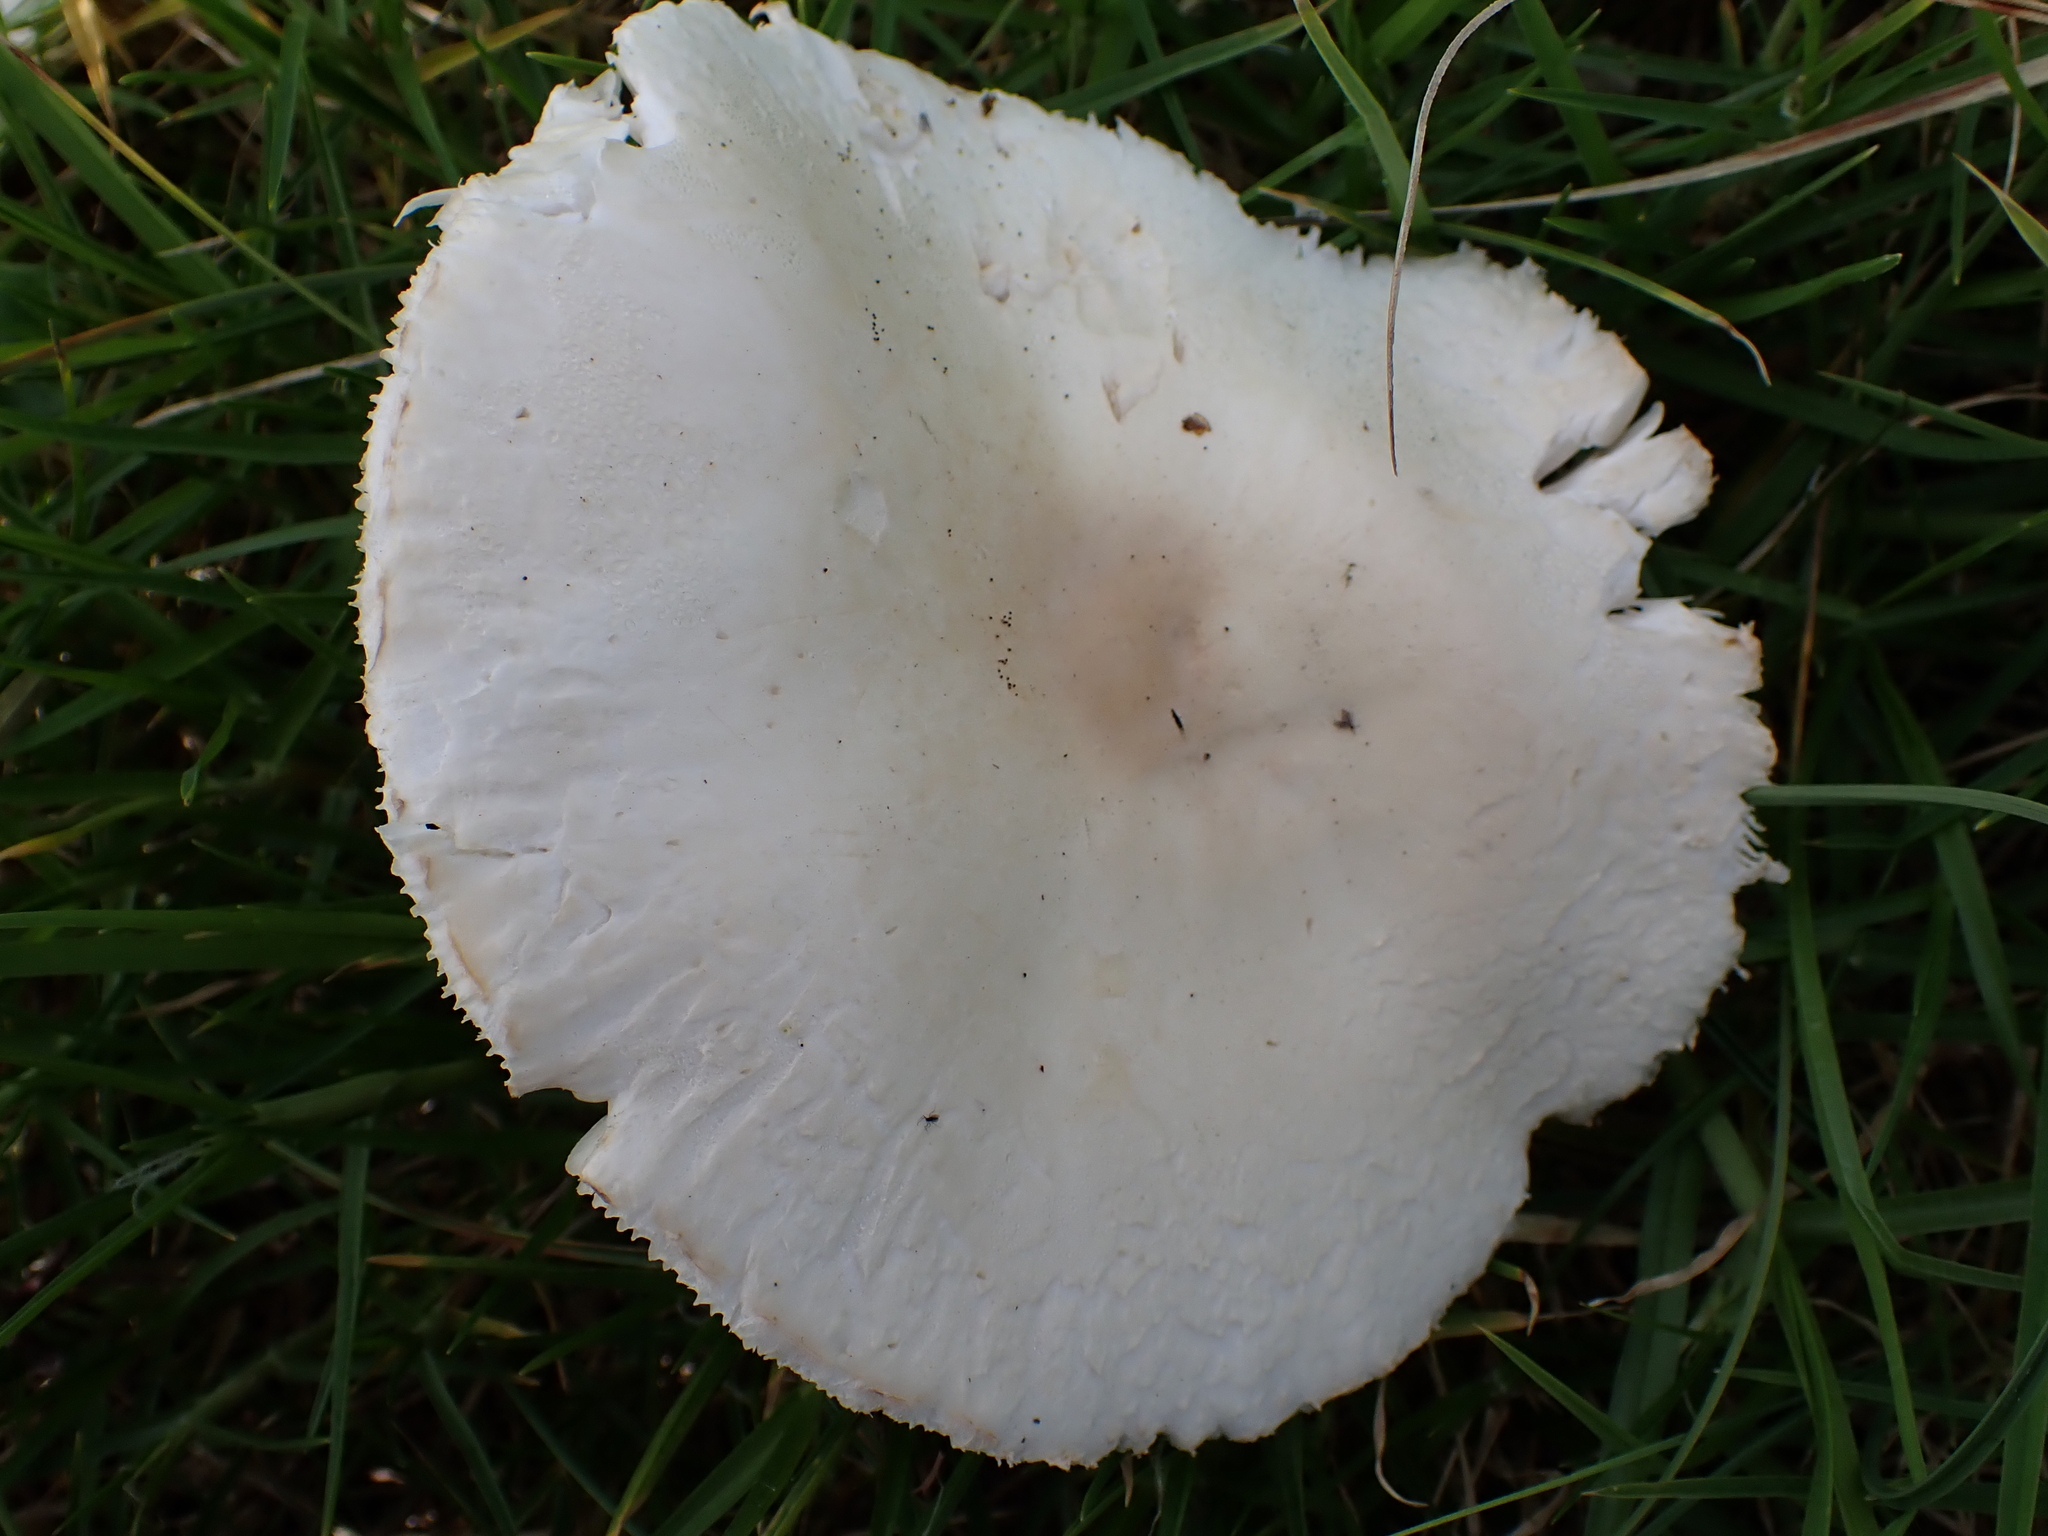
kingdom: Fungi
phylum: Basidiomycota
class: Agaricomycetes
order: Agaricales
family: Agaricaceae
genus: Leucoagaricus
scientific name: Leucoagaricus leucothites
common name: White dapperling
